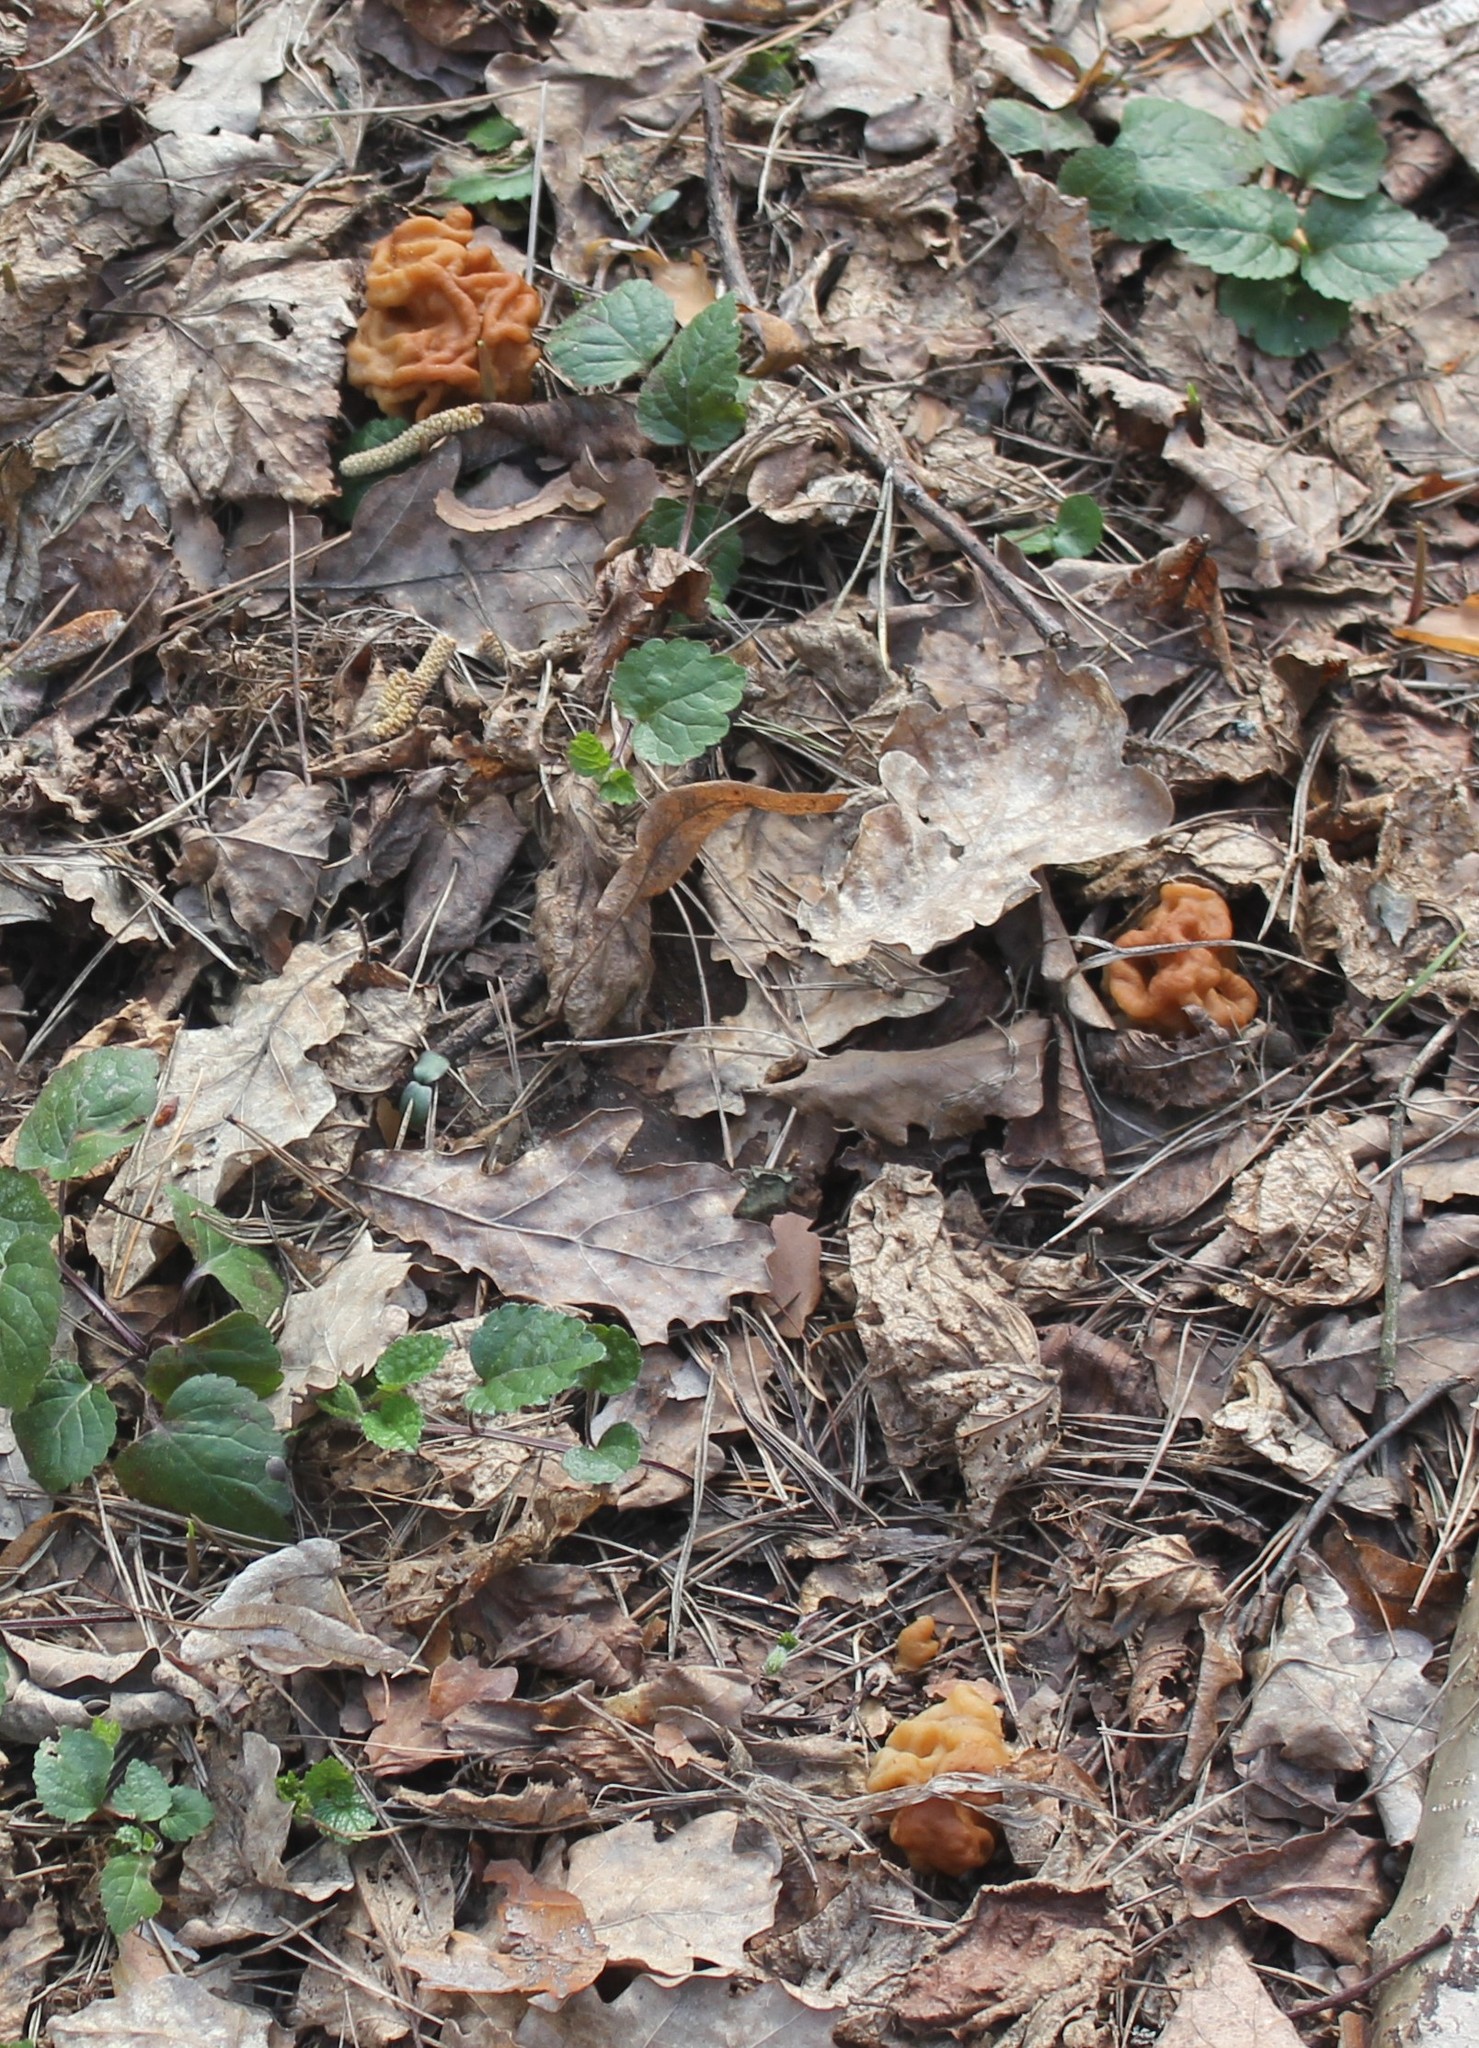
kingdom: Fungi
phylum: Ascomycota
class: Pezizomycetes
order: Pezizales
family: Discinaceae
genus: Gyromitra
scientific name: Gyromitra gigas
